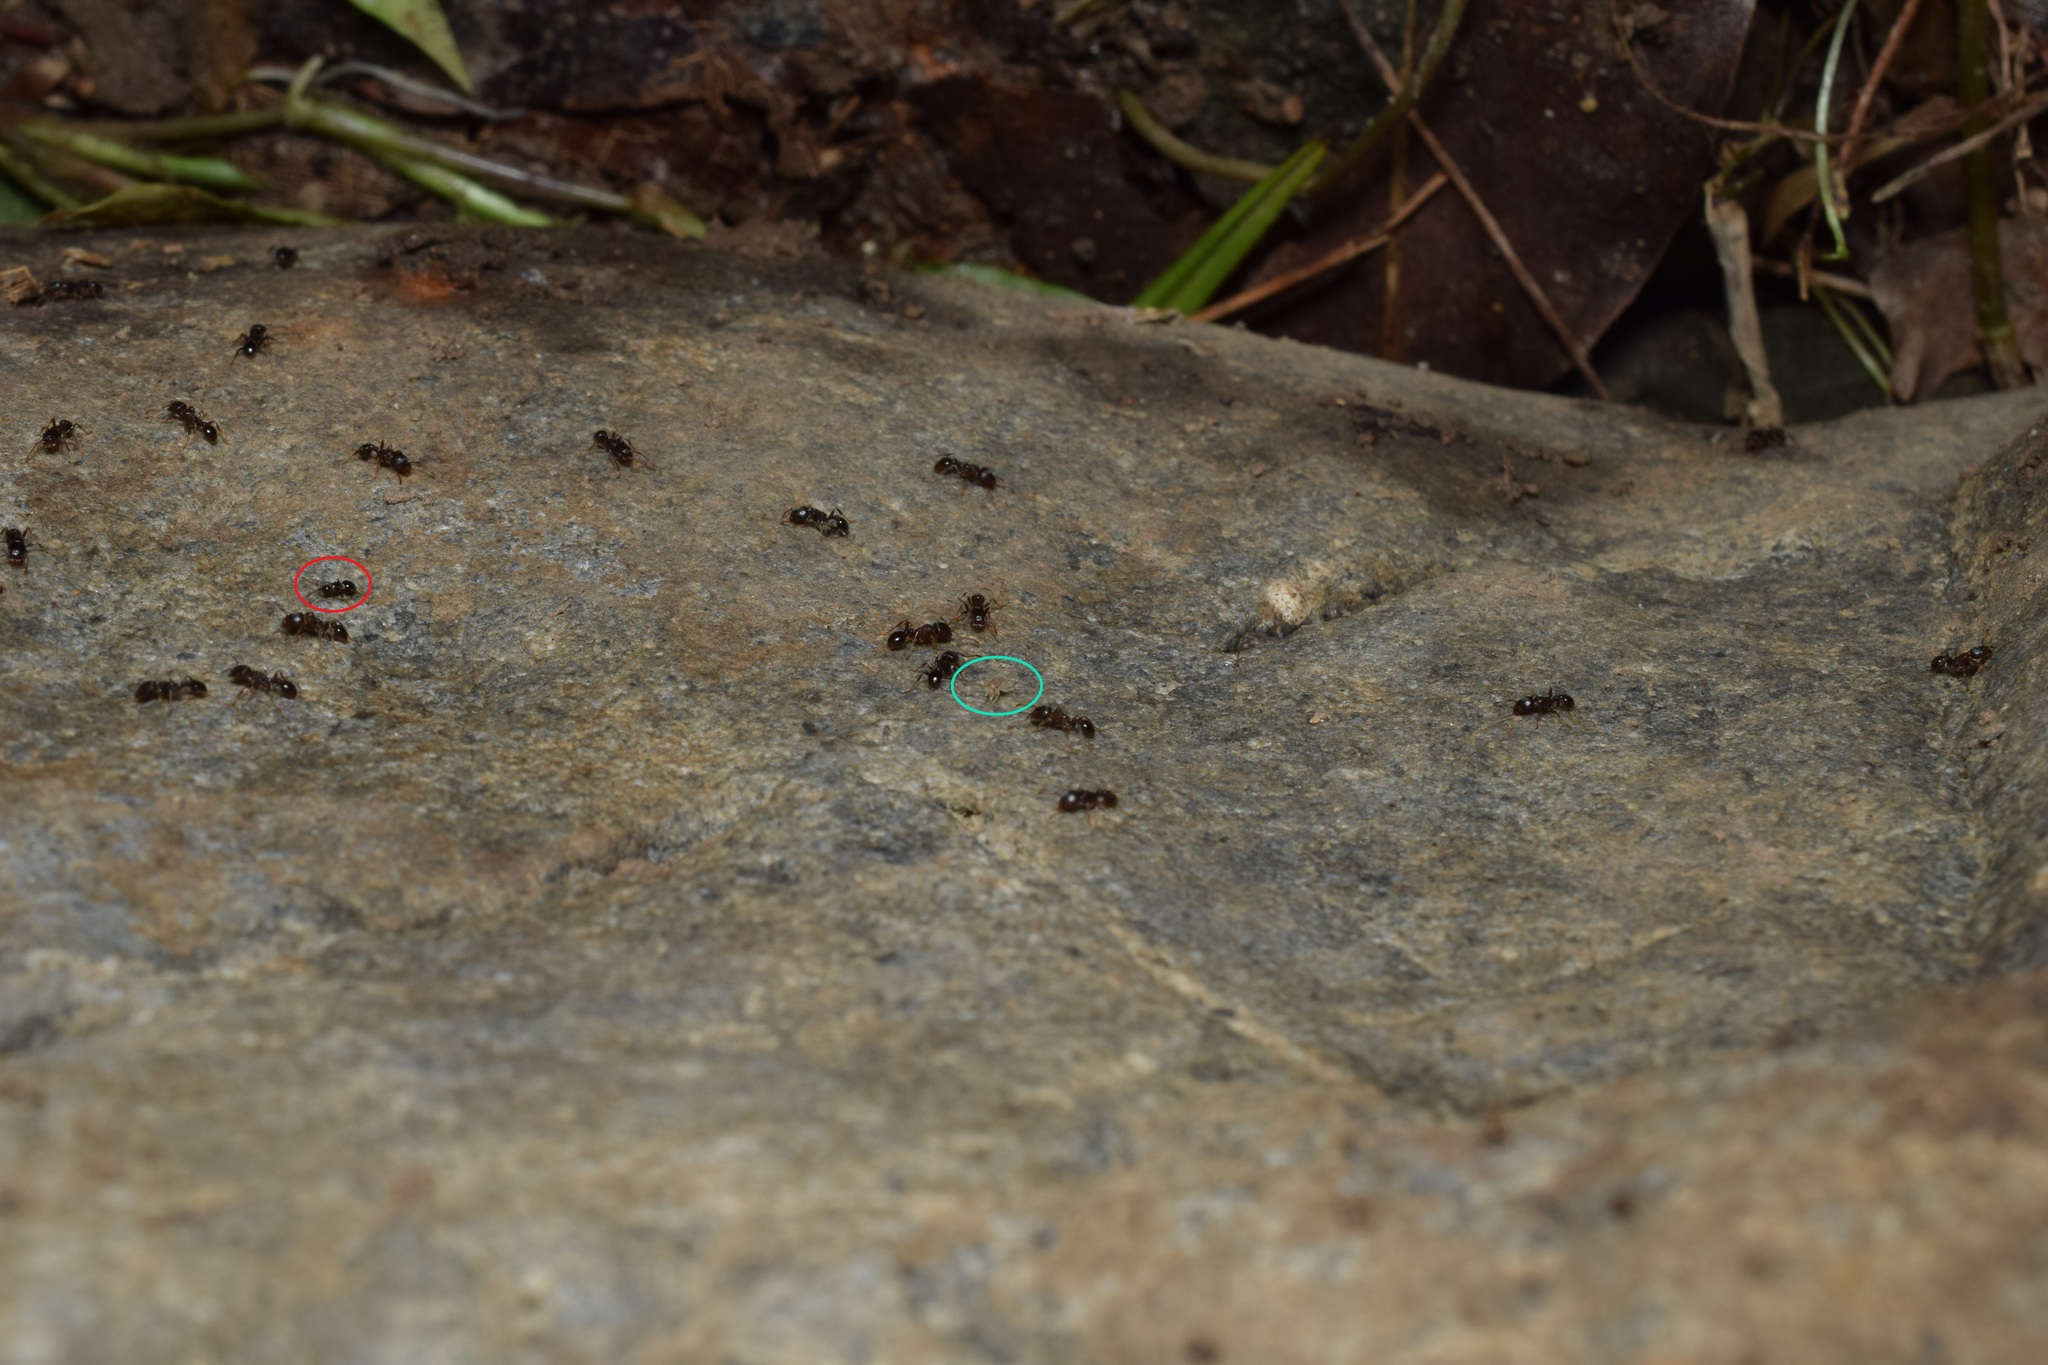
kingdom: Animalia
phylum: Arthropoda
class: Insecta
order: Hymenoptera
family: Formicidae
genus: Tetramorium
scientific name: Tetramorium tsushimae
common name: Ant
